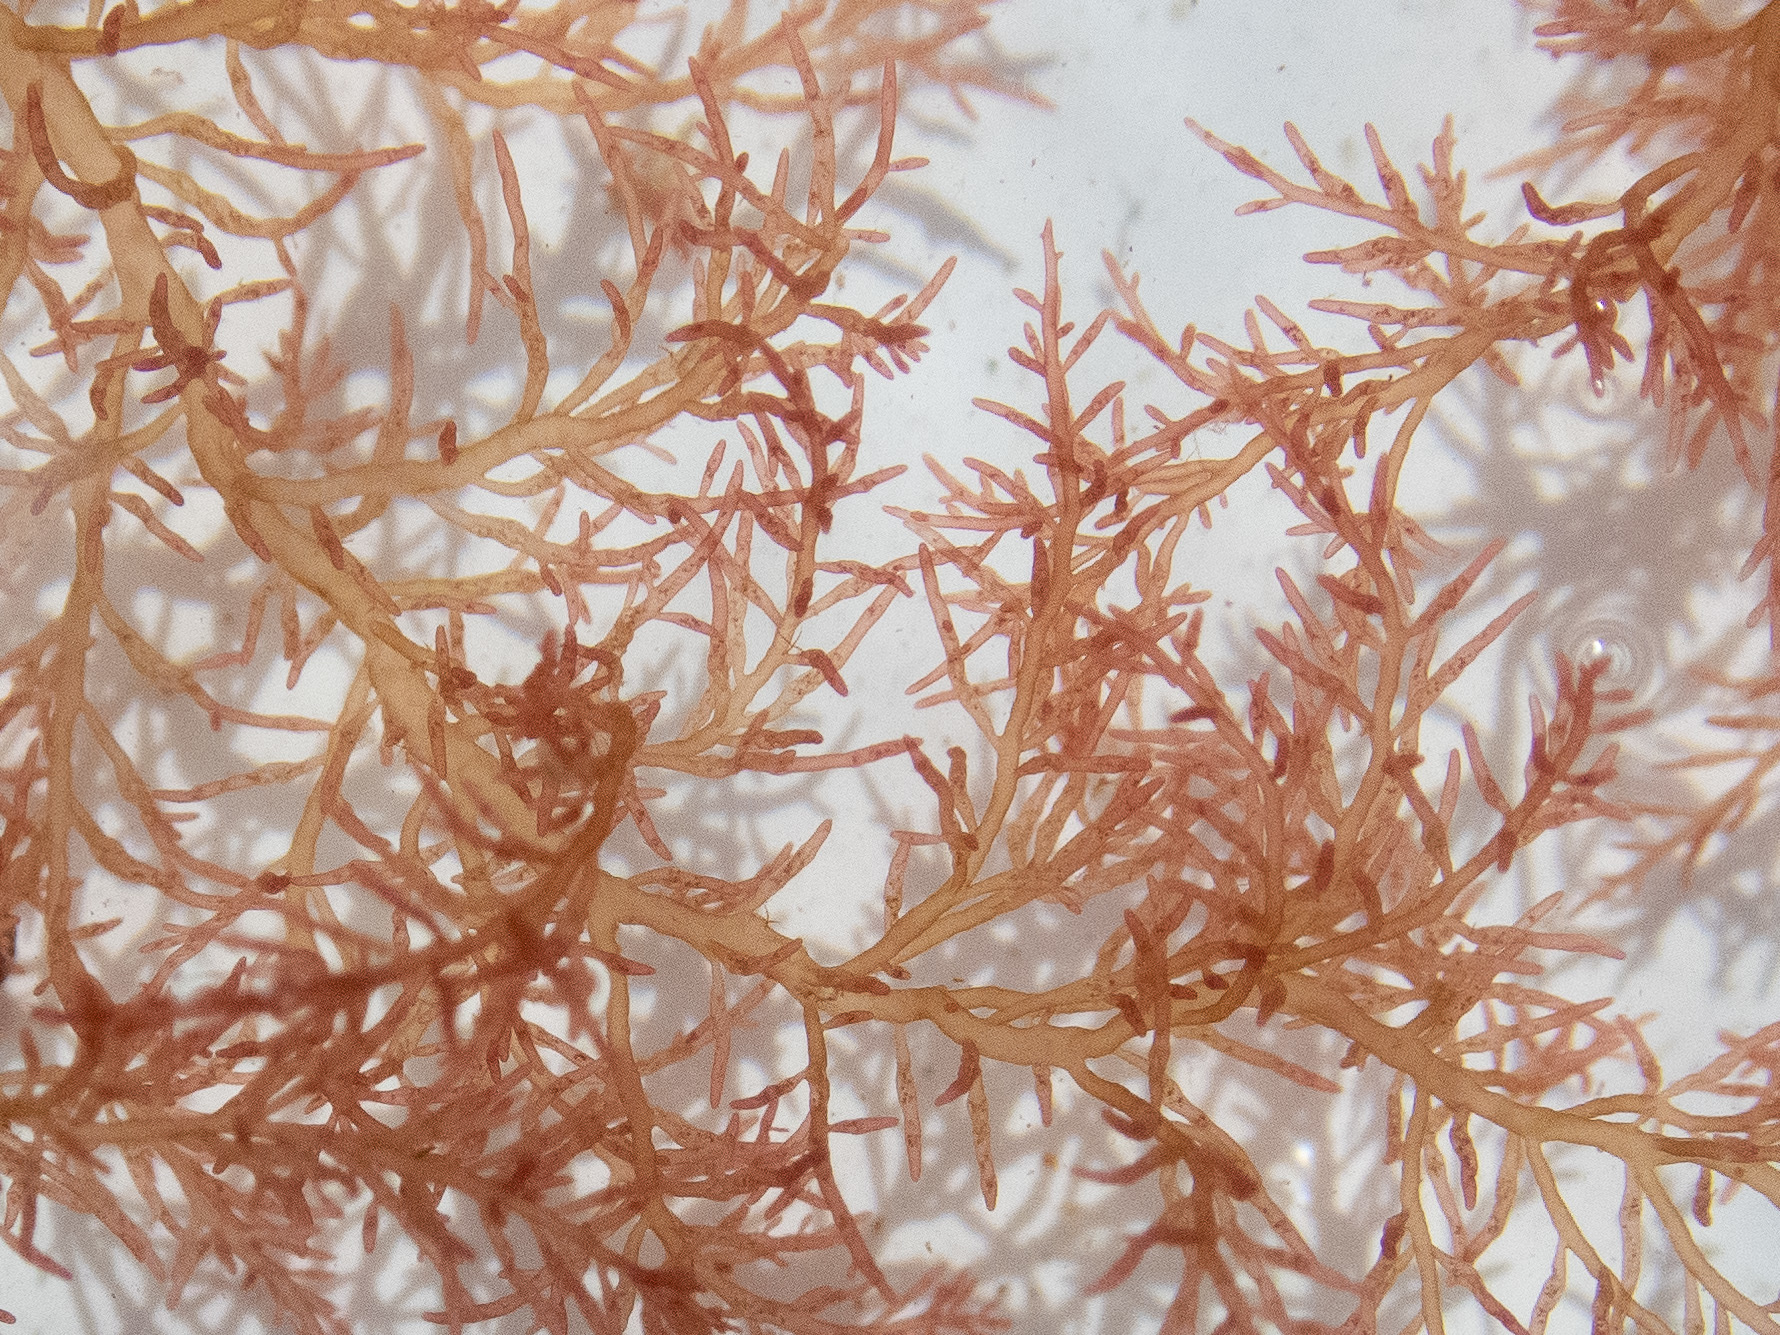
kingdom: Plantae
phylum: Rhodophyta
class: Florideophyceae
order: Rhodymeniales
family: Lomentariaceae
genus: Lomentaria
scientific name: Lomentaria clavellosa
